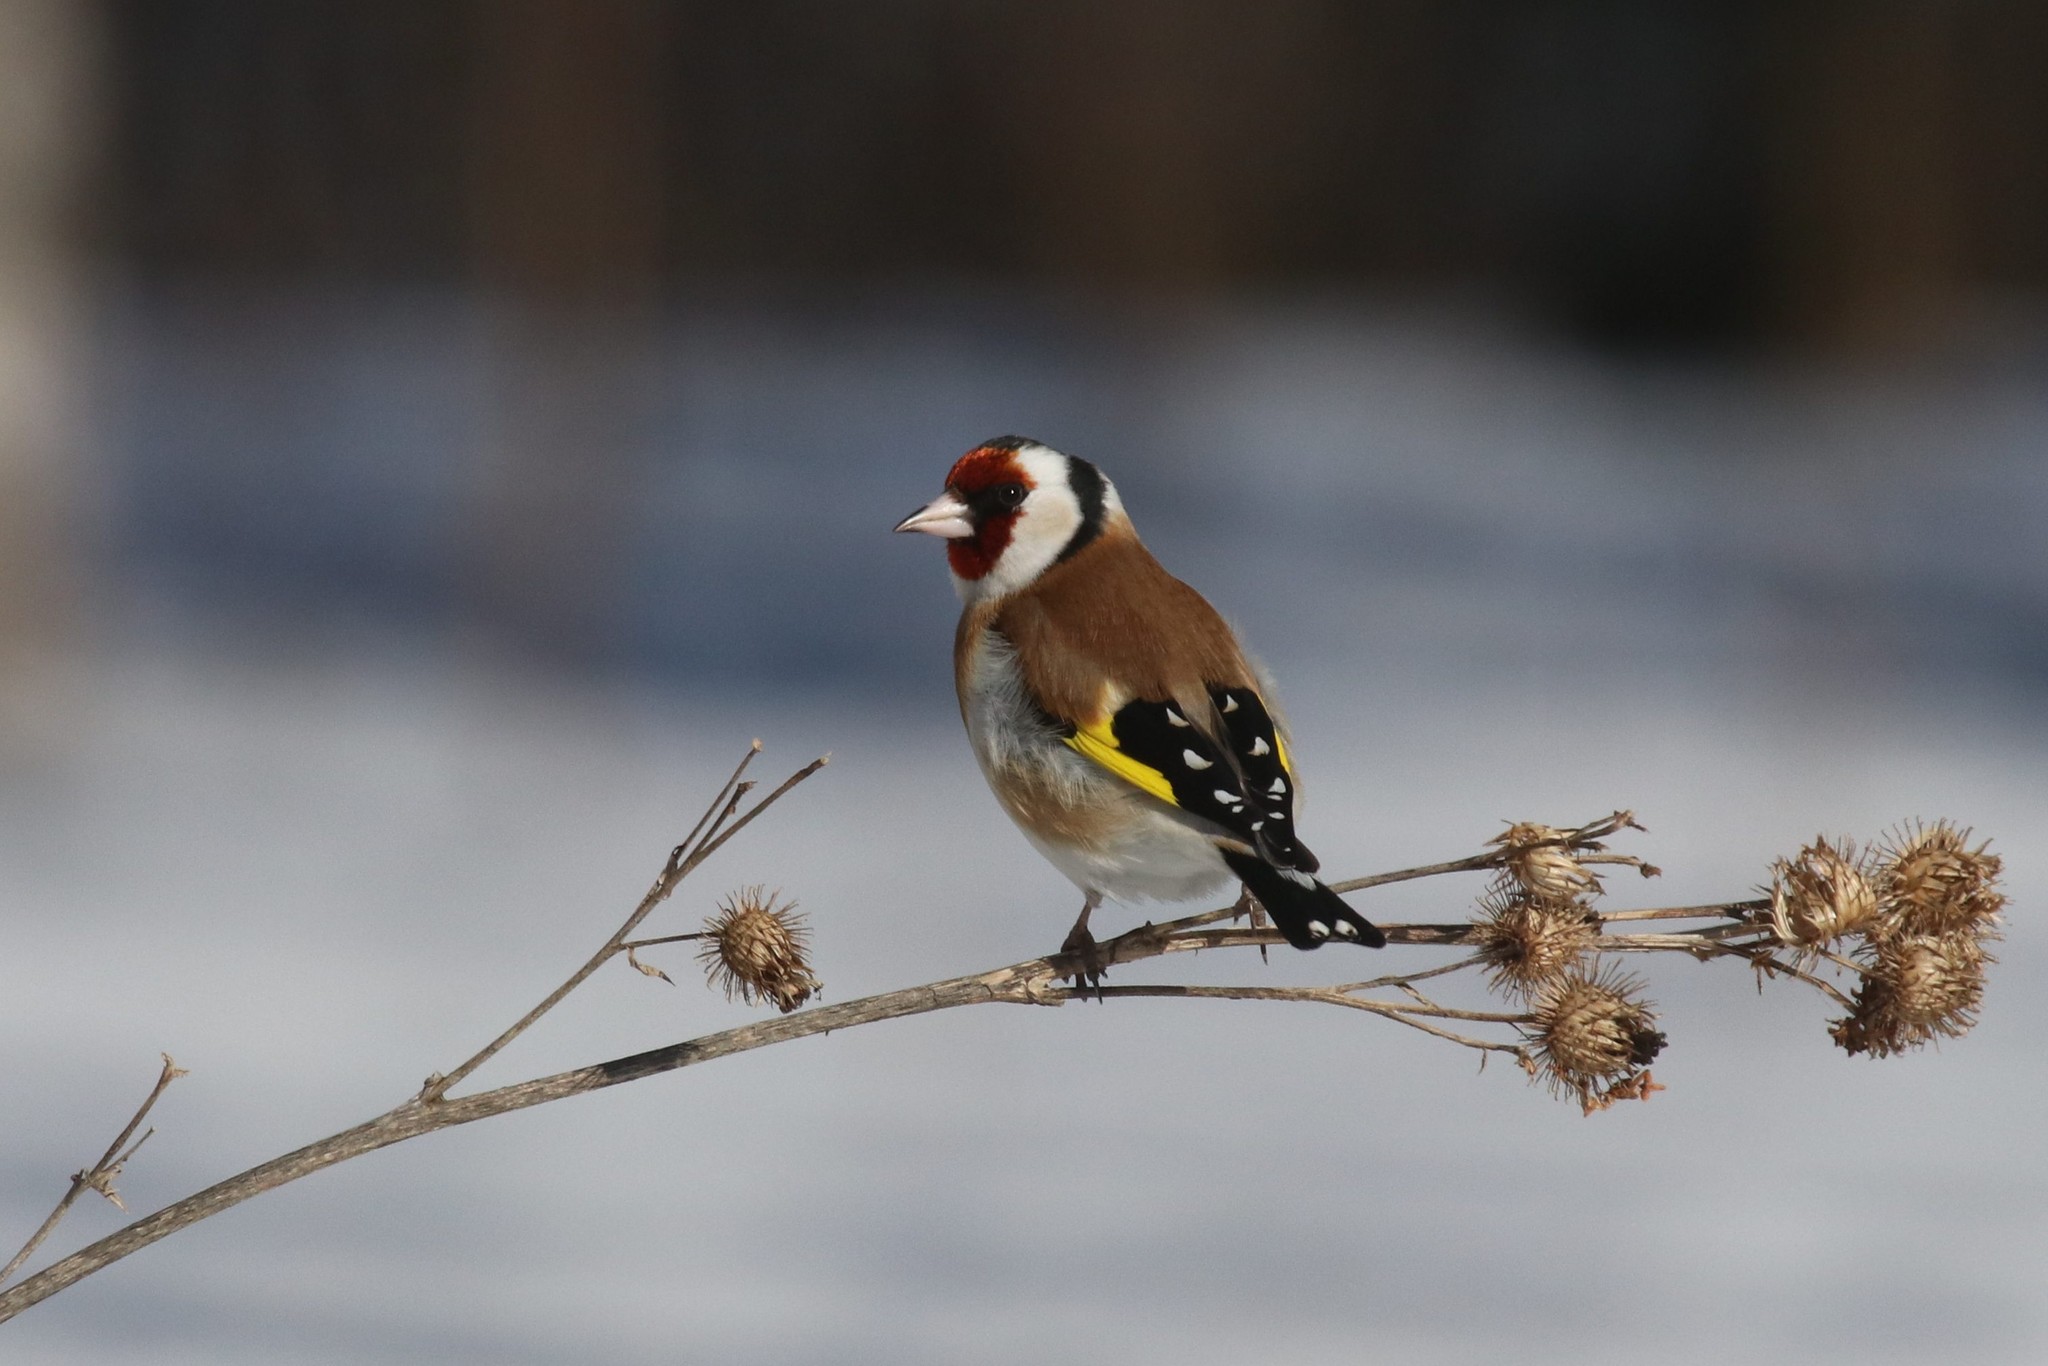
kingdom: Animalia
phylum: Chordata
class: Aves
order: Passeriformes
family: Fringillidae
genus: Carduelis
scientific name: Carduelis carduelis
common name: European goldfinch
